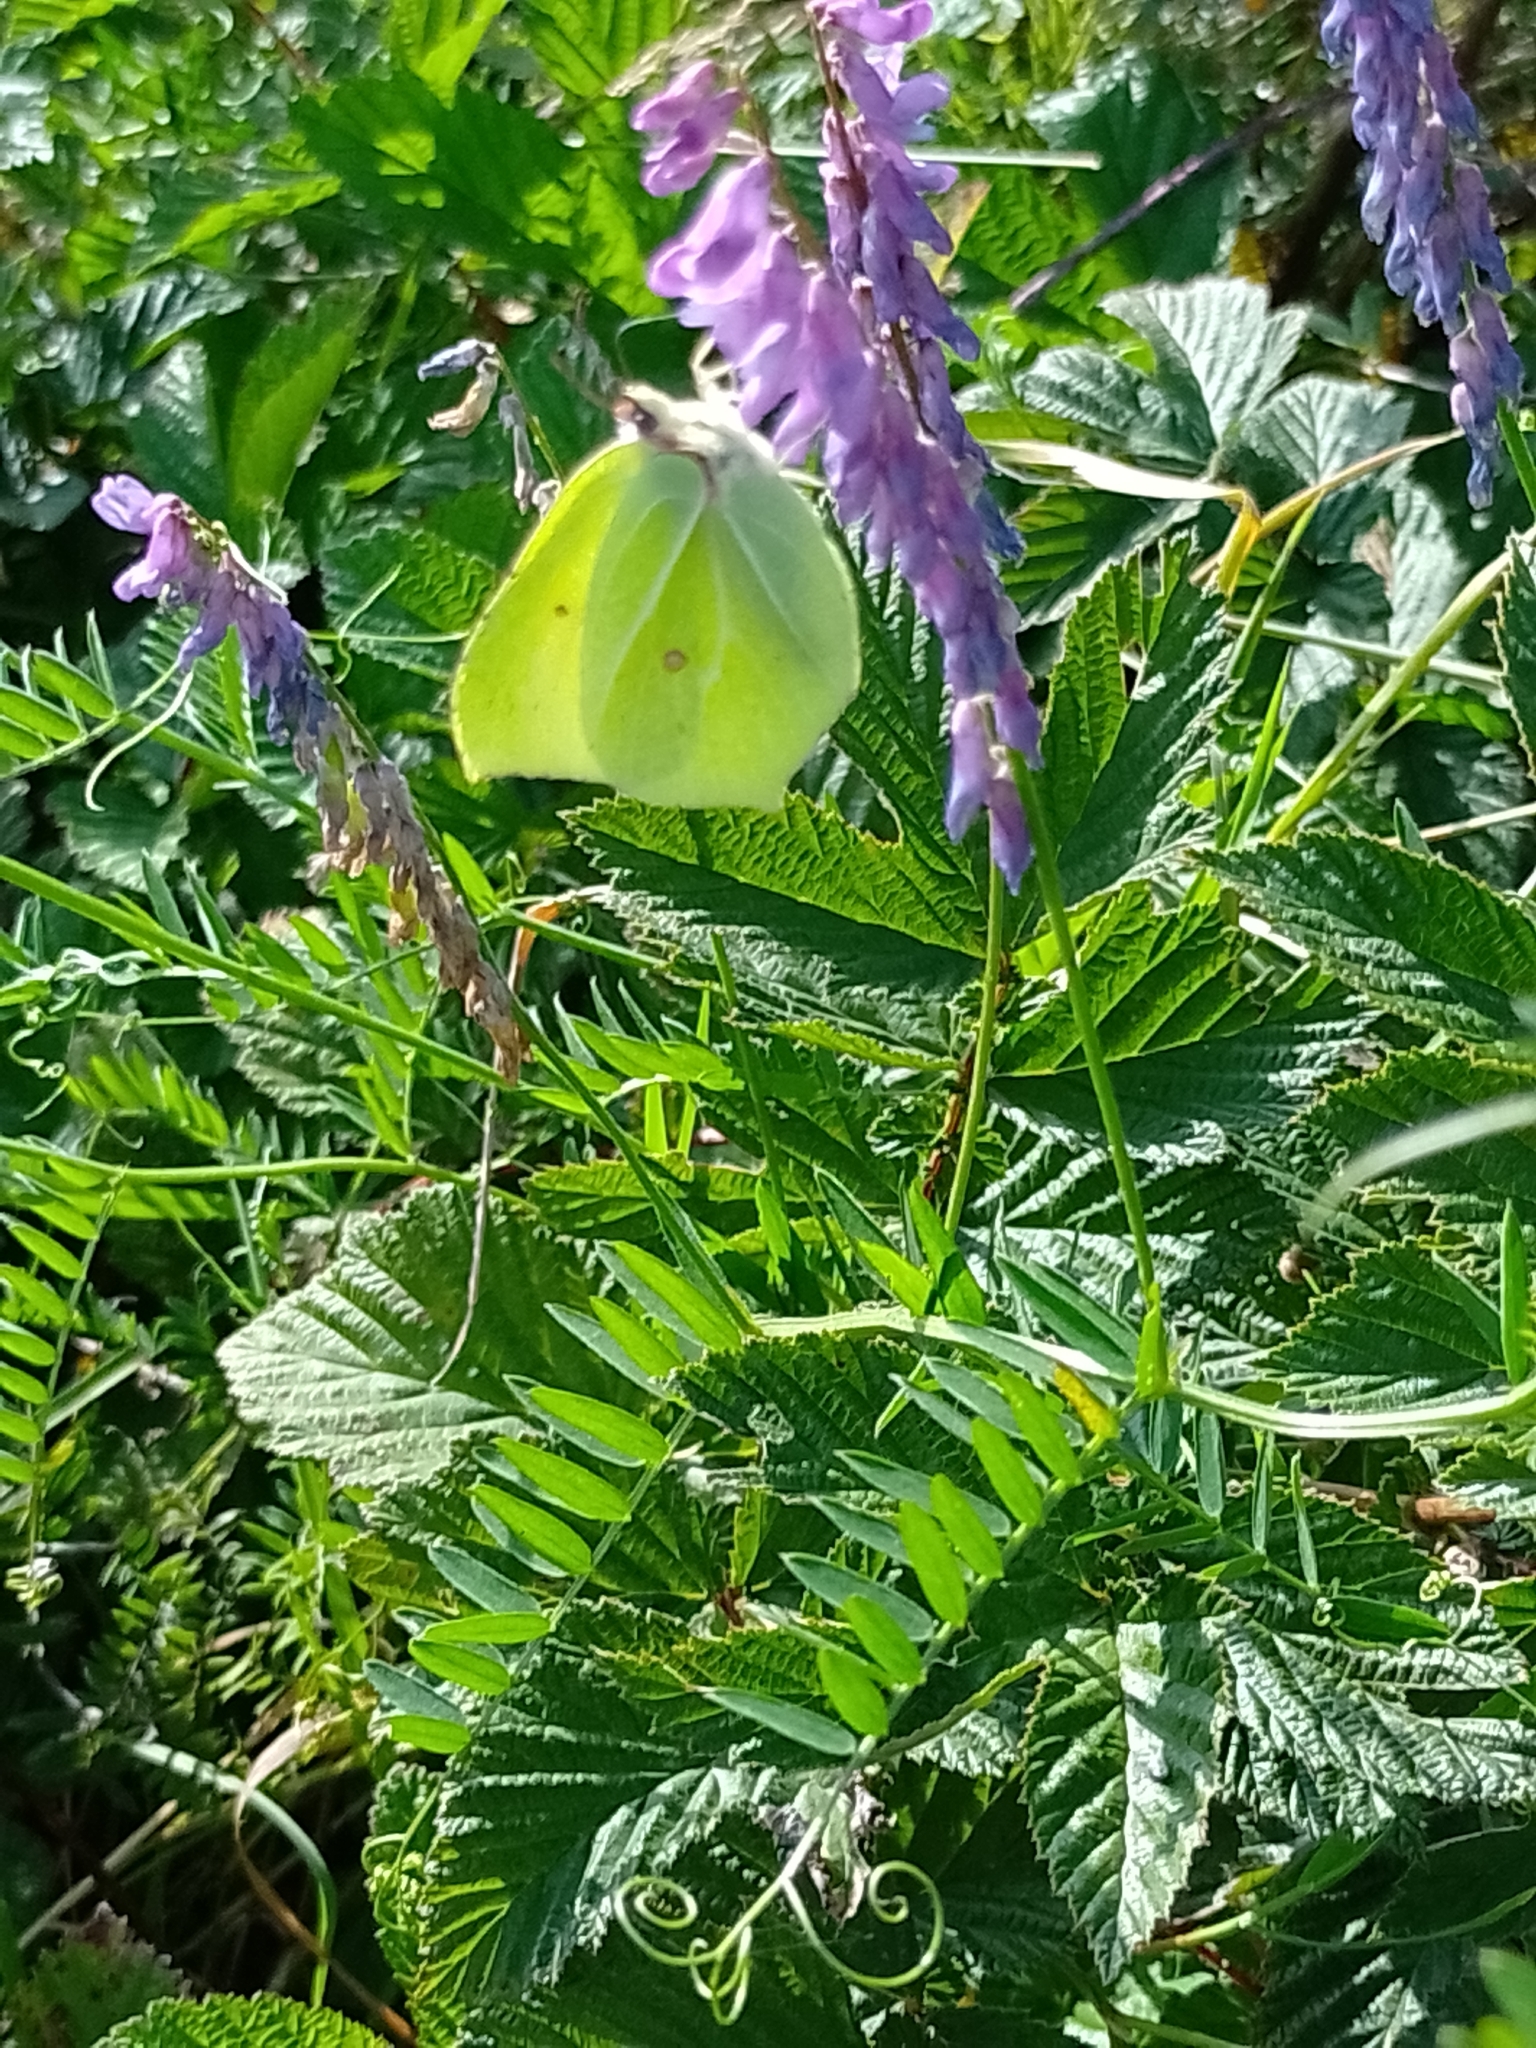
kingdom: Animalia
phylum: Arthropoda
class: Insecta
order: Lepidoptera
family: Pieridae
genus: Gonepteryx
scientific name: Gonepteryx rhamni
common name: Brimstone
